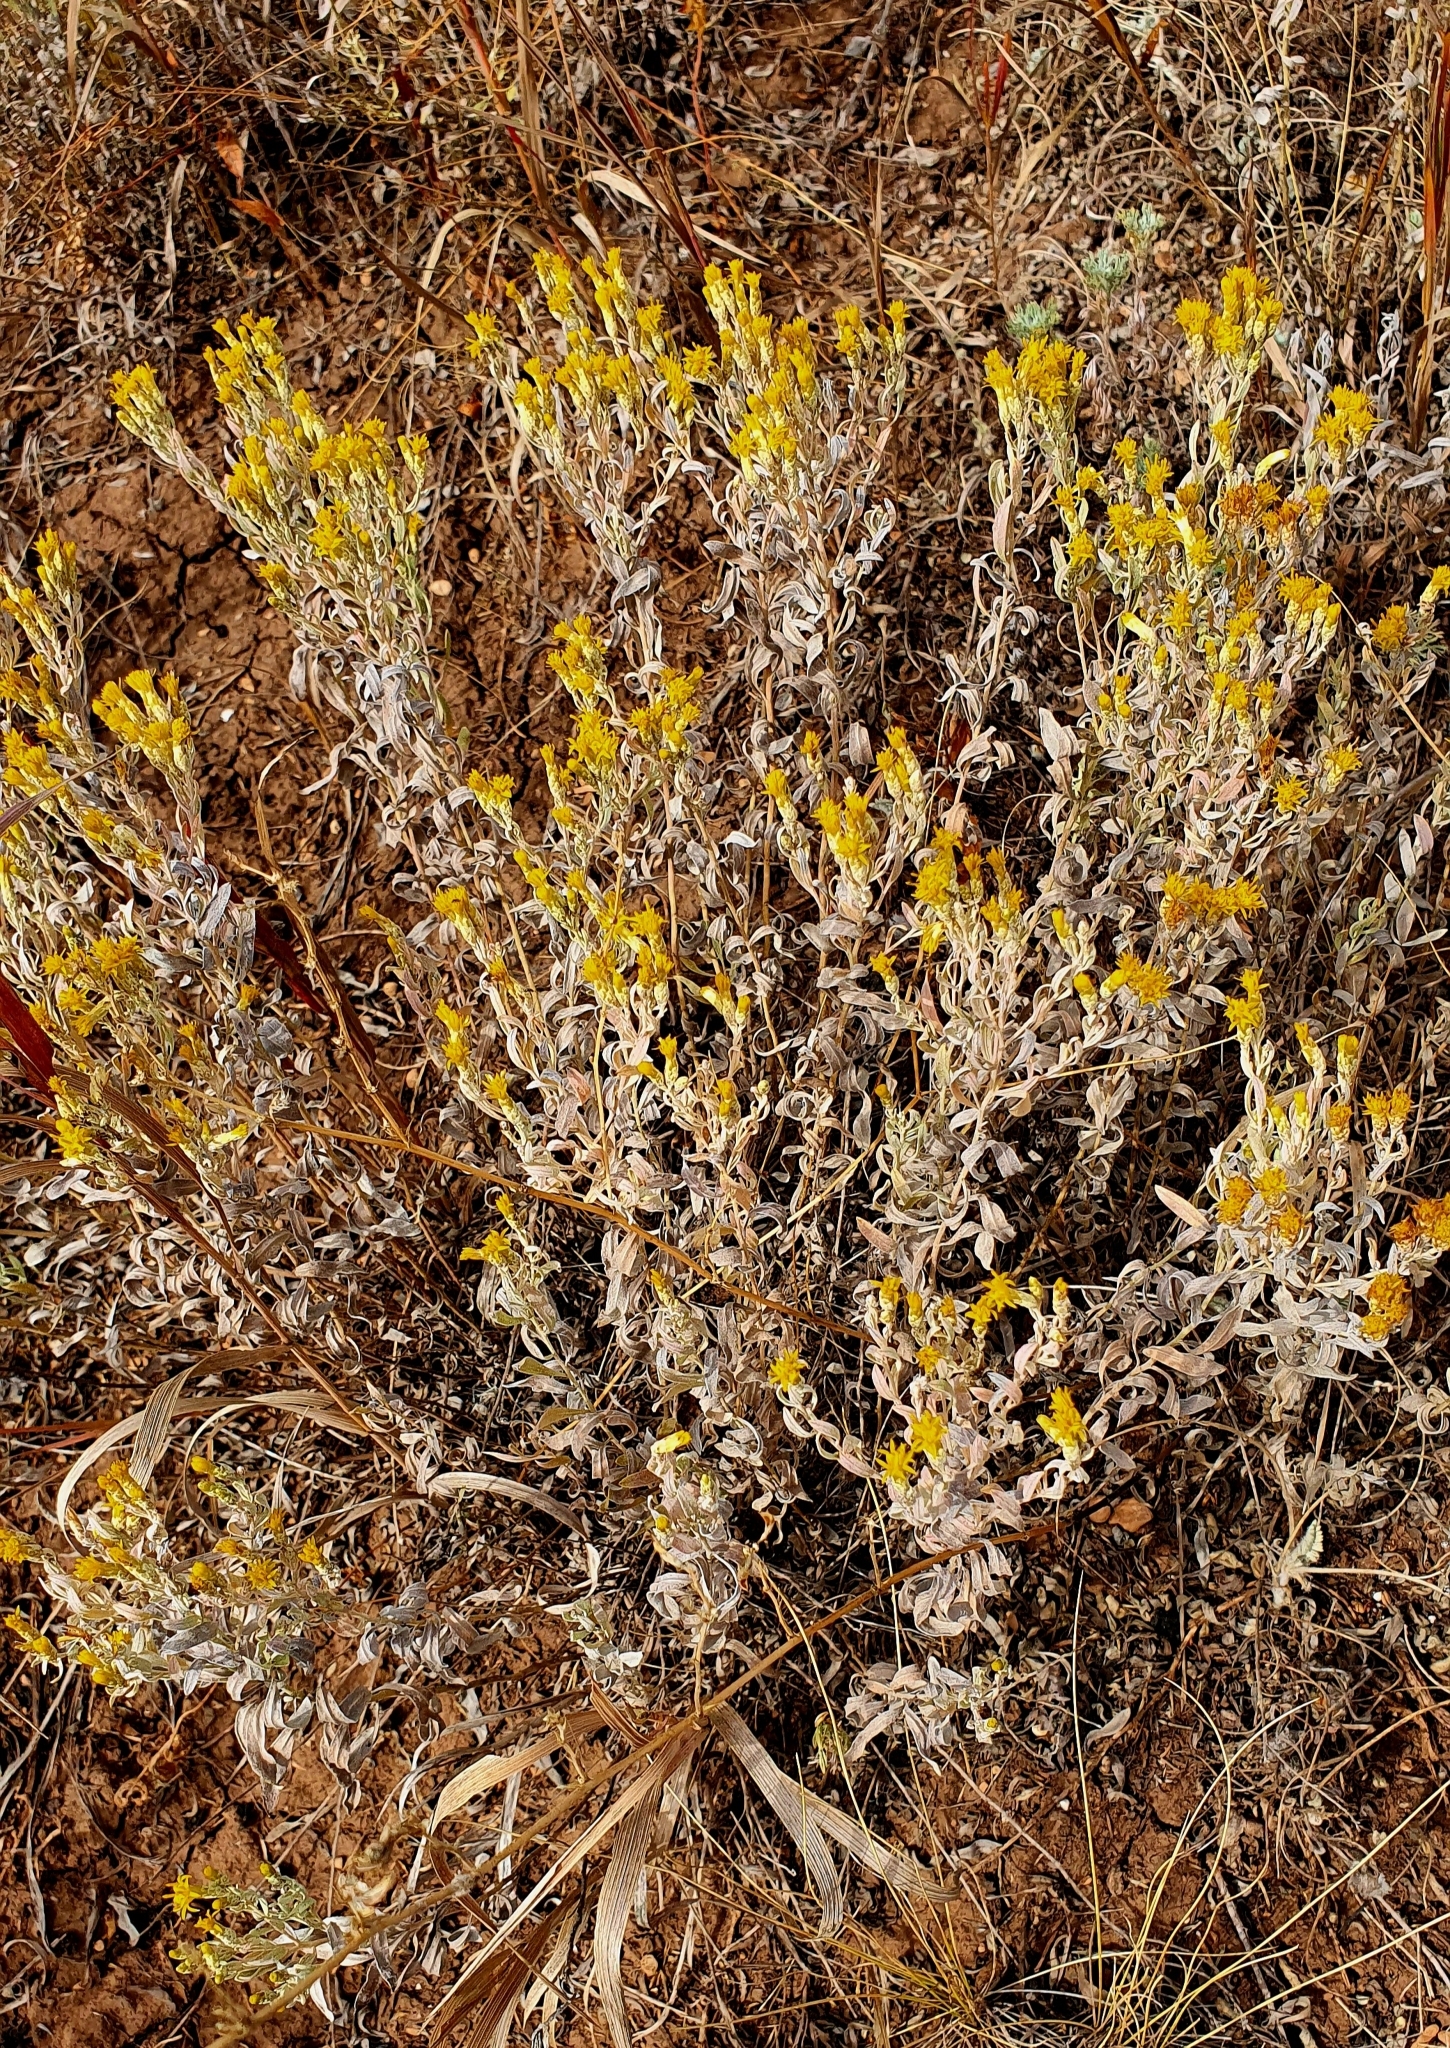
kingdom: Plantae
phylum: Tracheophyta
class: Magnoliopsida
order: Asterales
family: Asteraceae
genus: Galatella
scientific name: Galatella villosa
